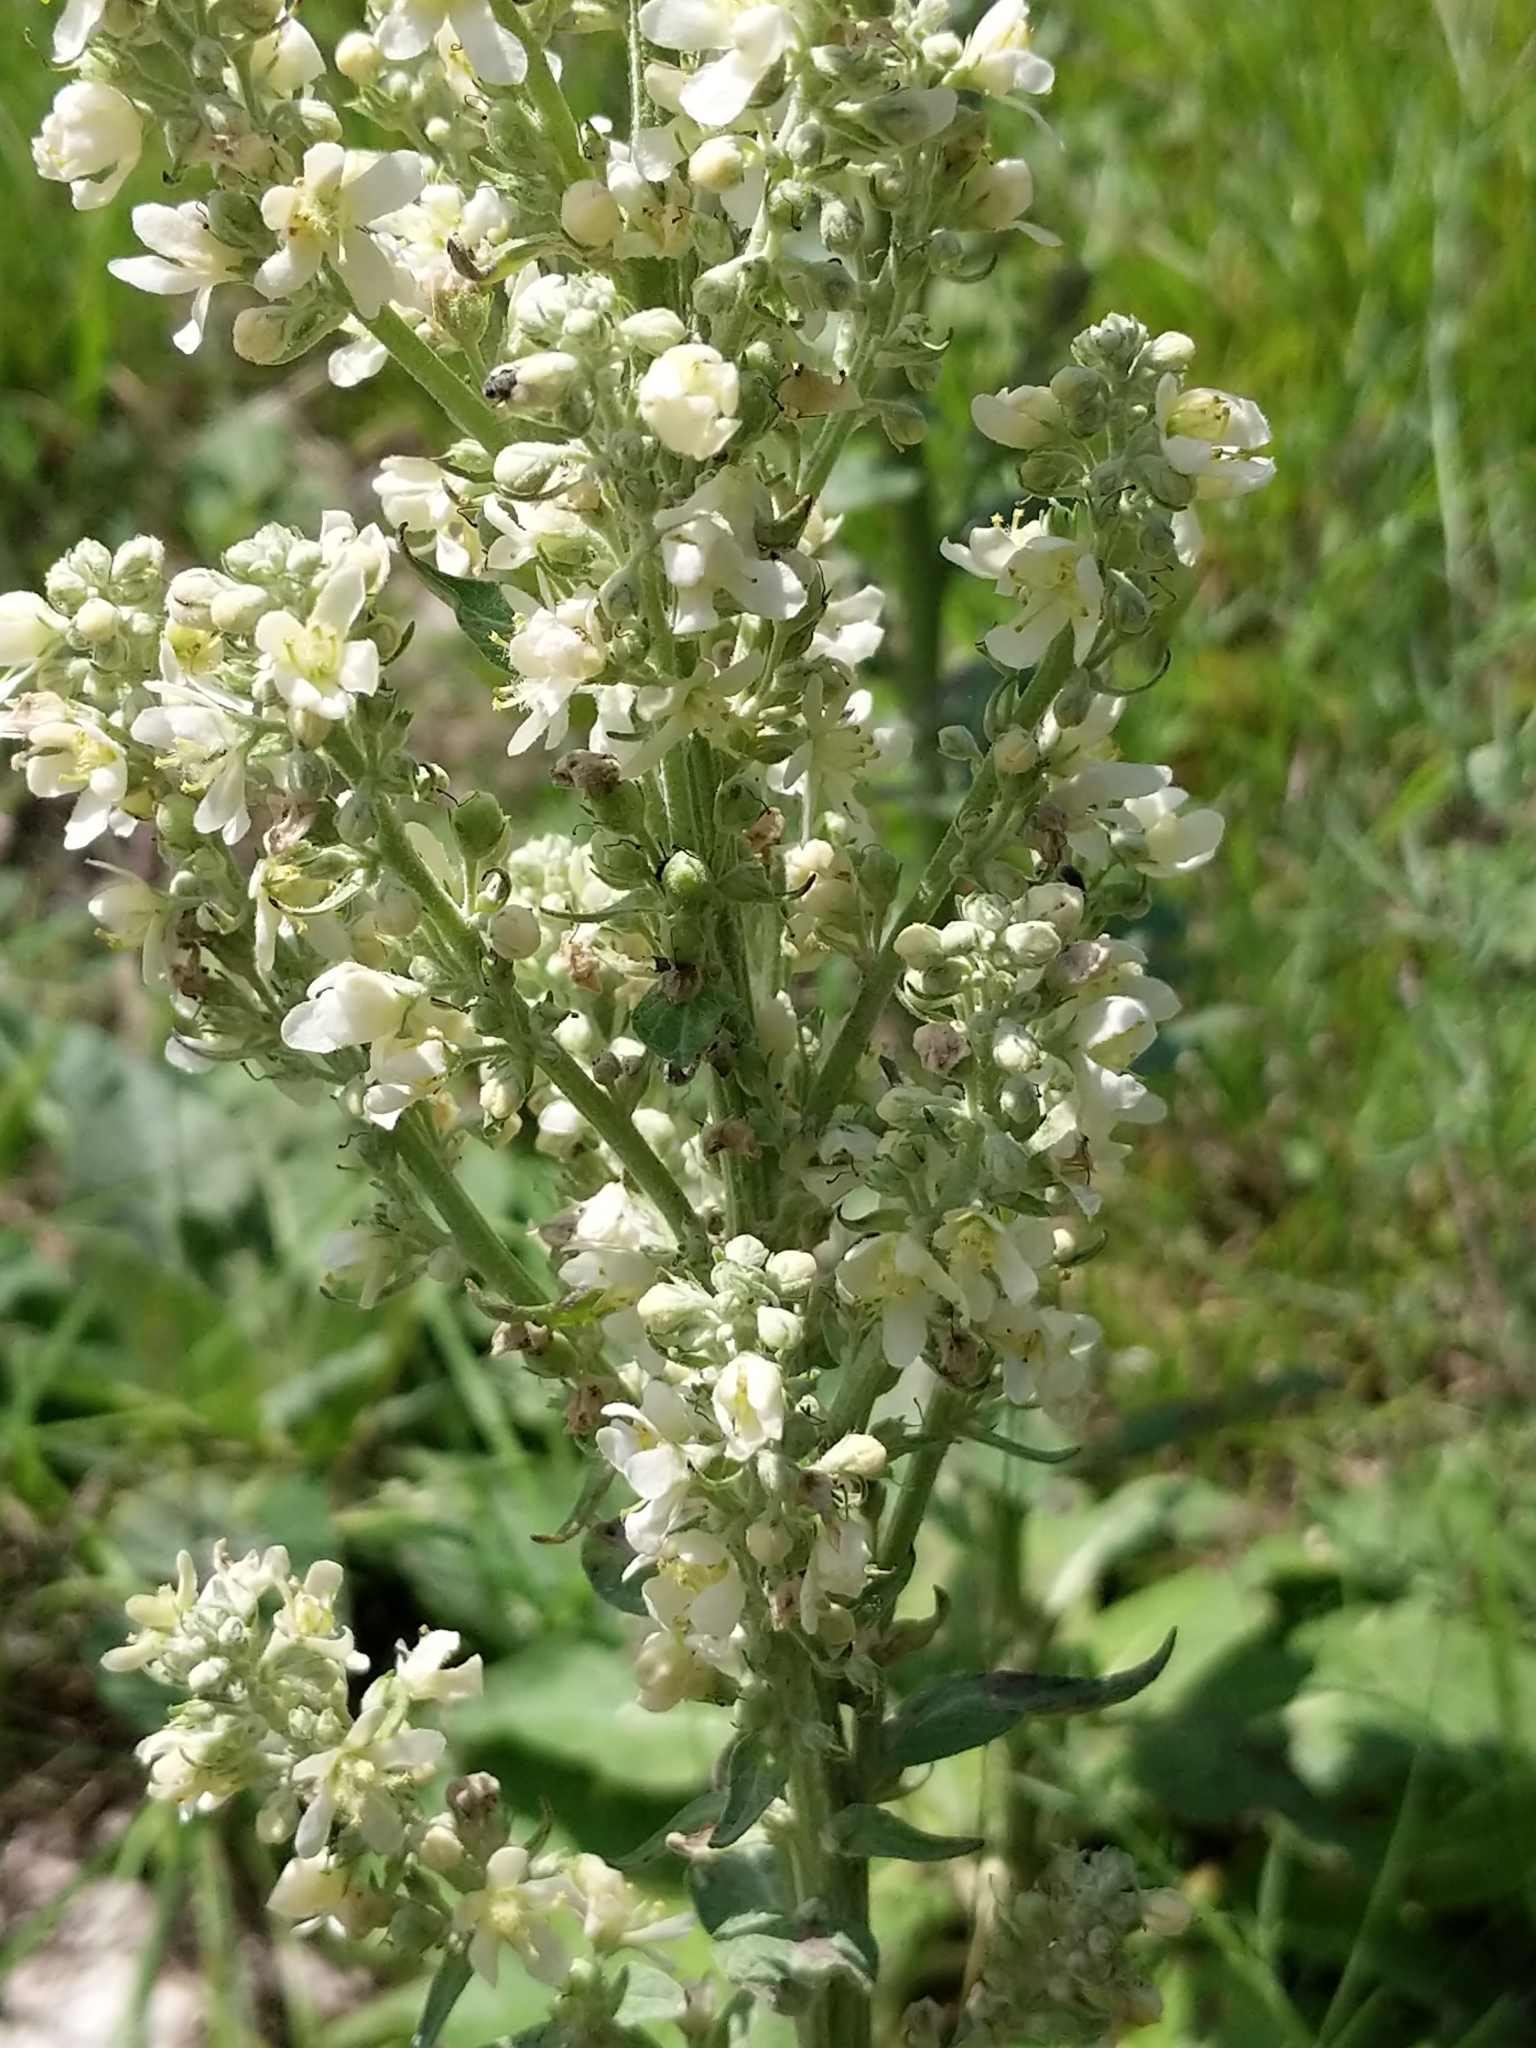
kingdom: Plantae
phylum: Tracheophyta
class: Magnoliopsida
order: Lamiales
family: Scrophulariaceae
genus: Verbascum
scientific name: Verbascum lychnitis
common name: White mullein
